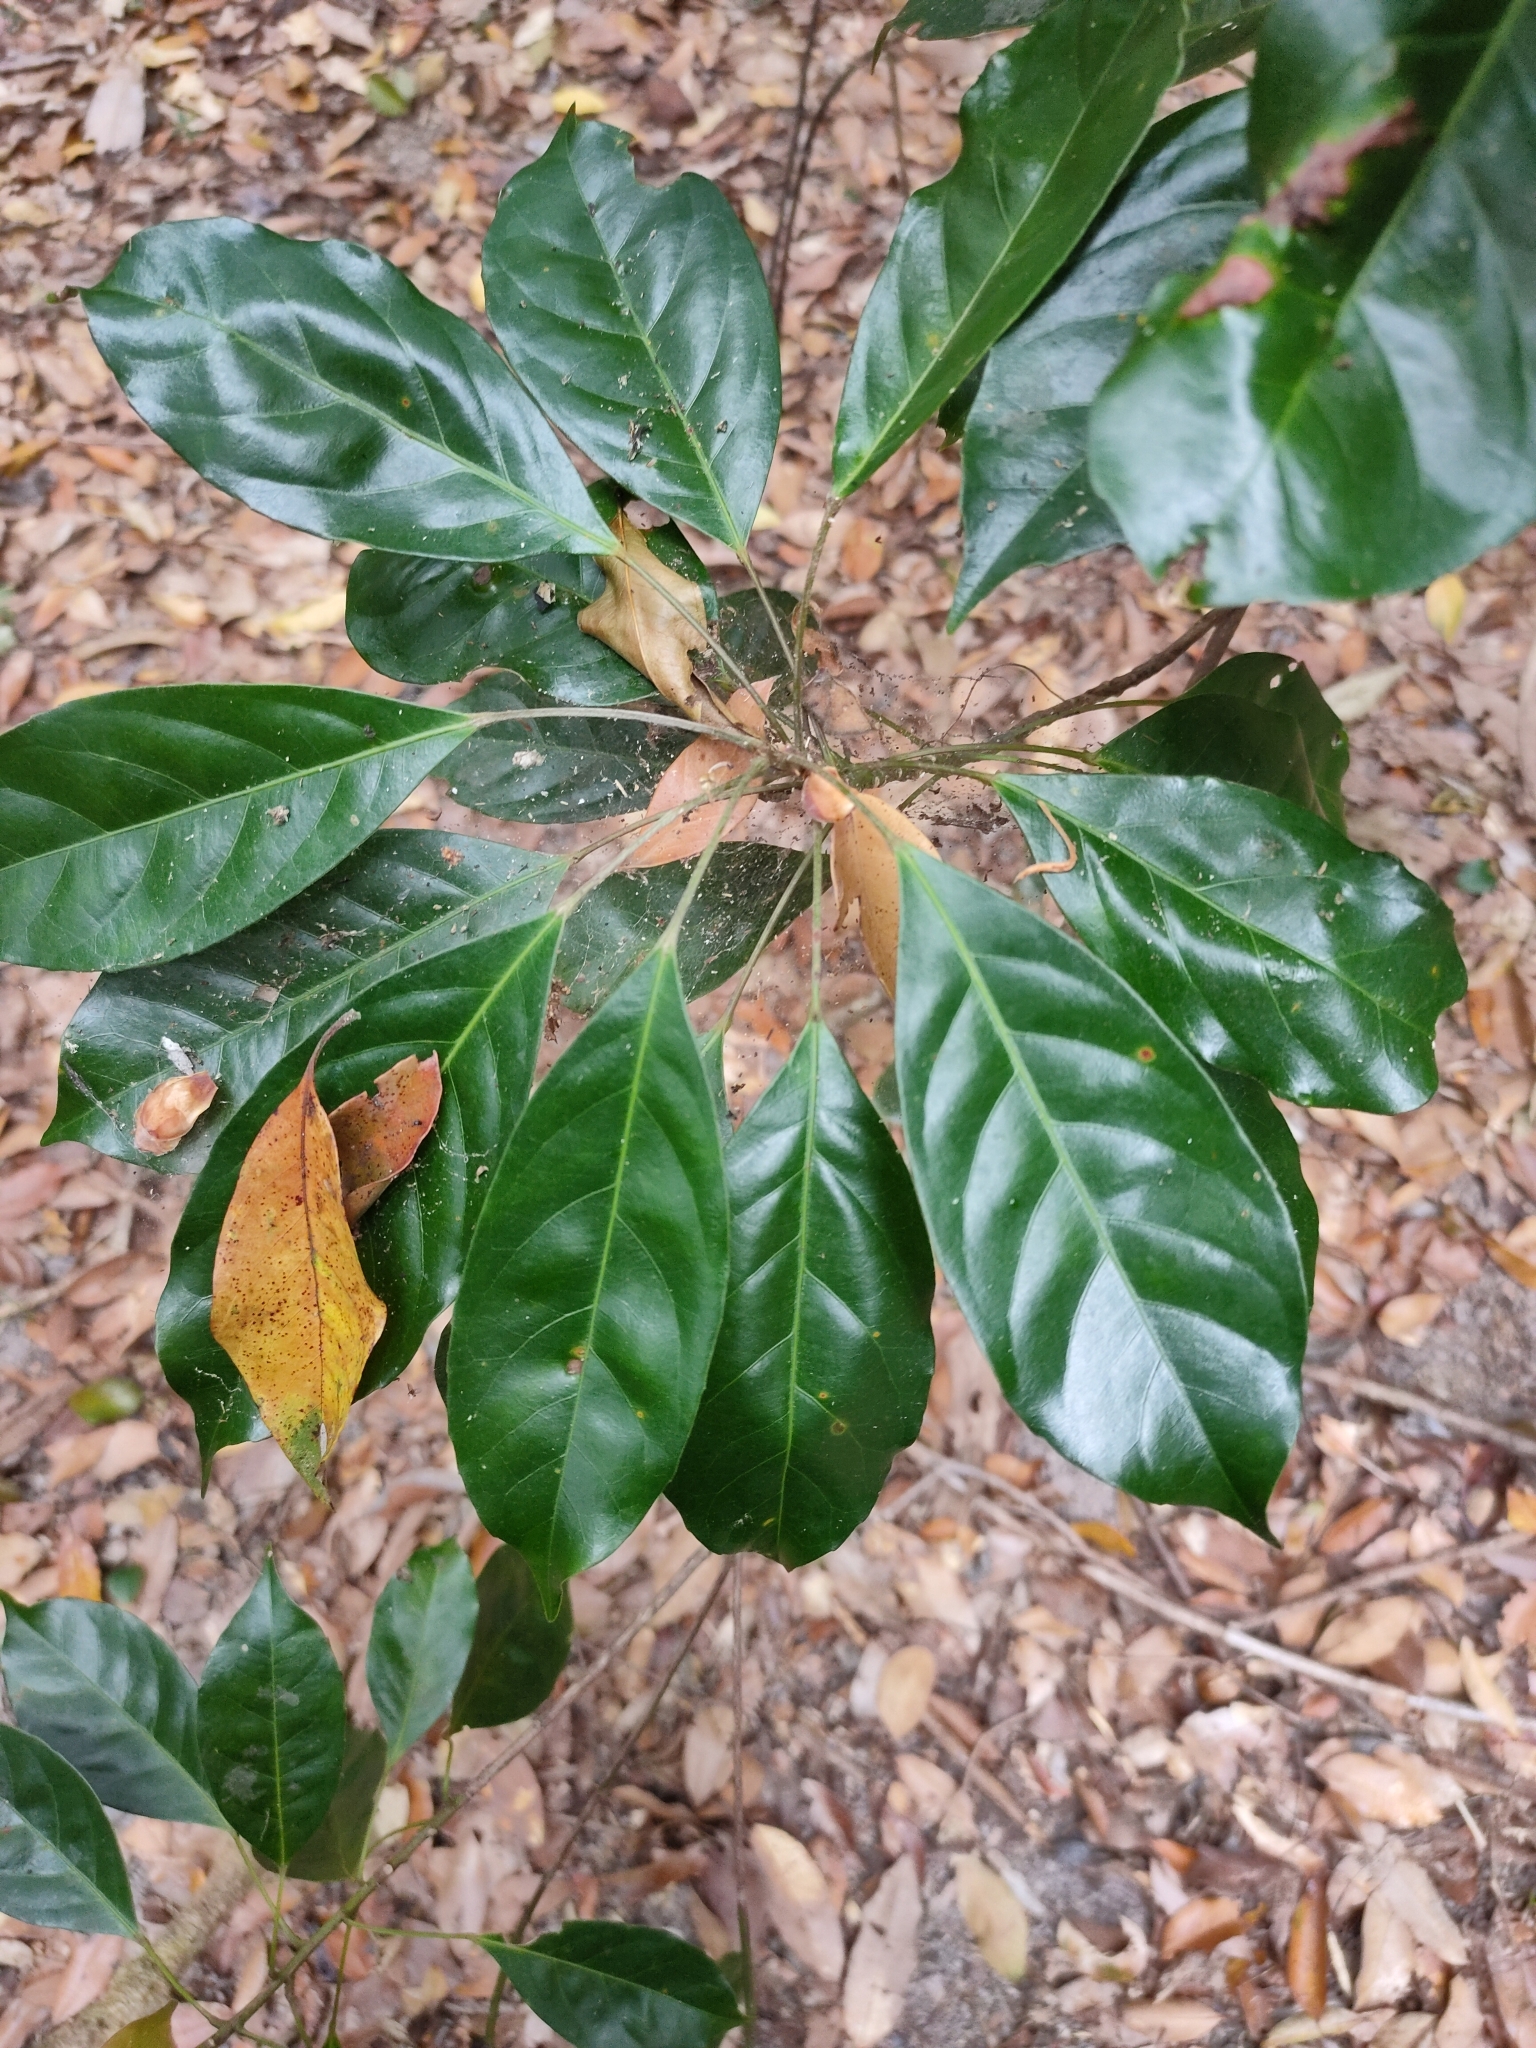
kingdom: Plantae
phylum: Tracheophyta
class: Magnoliopsida
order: Oxalidales
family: Elaeocarpaceae
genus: Elaeocarpus
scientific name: Elaeocarpus eumundi
